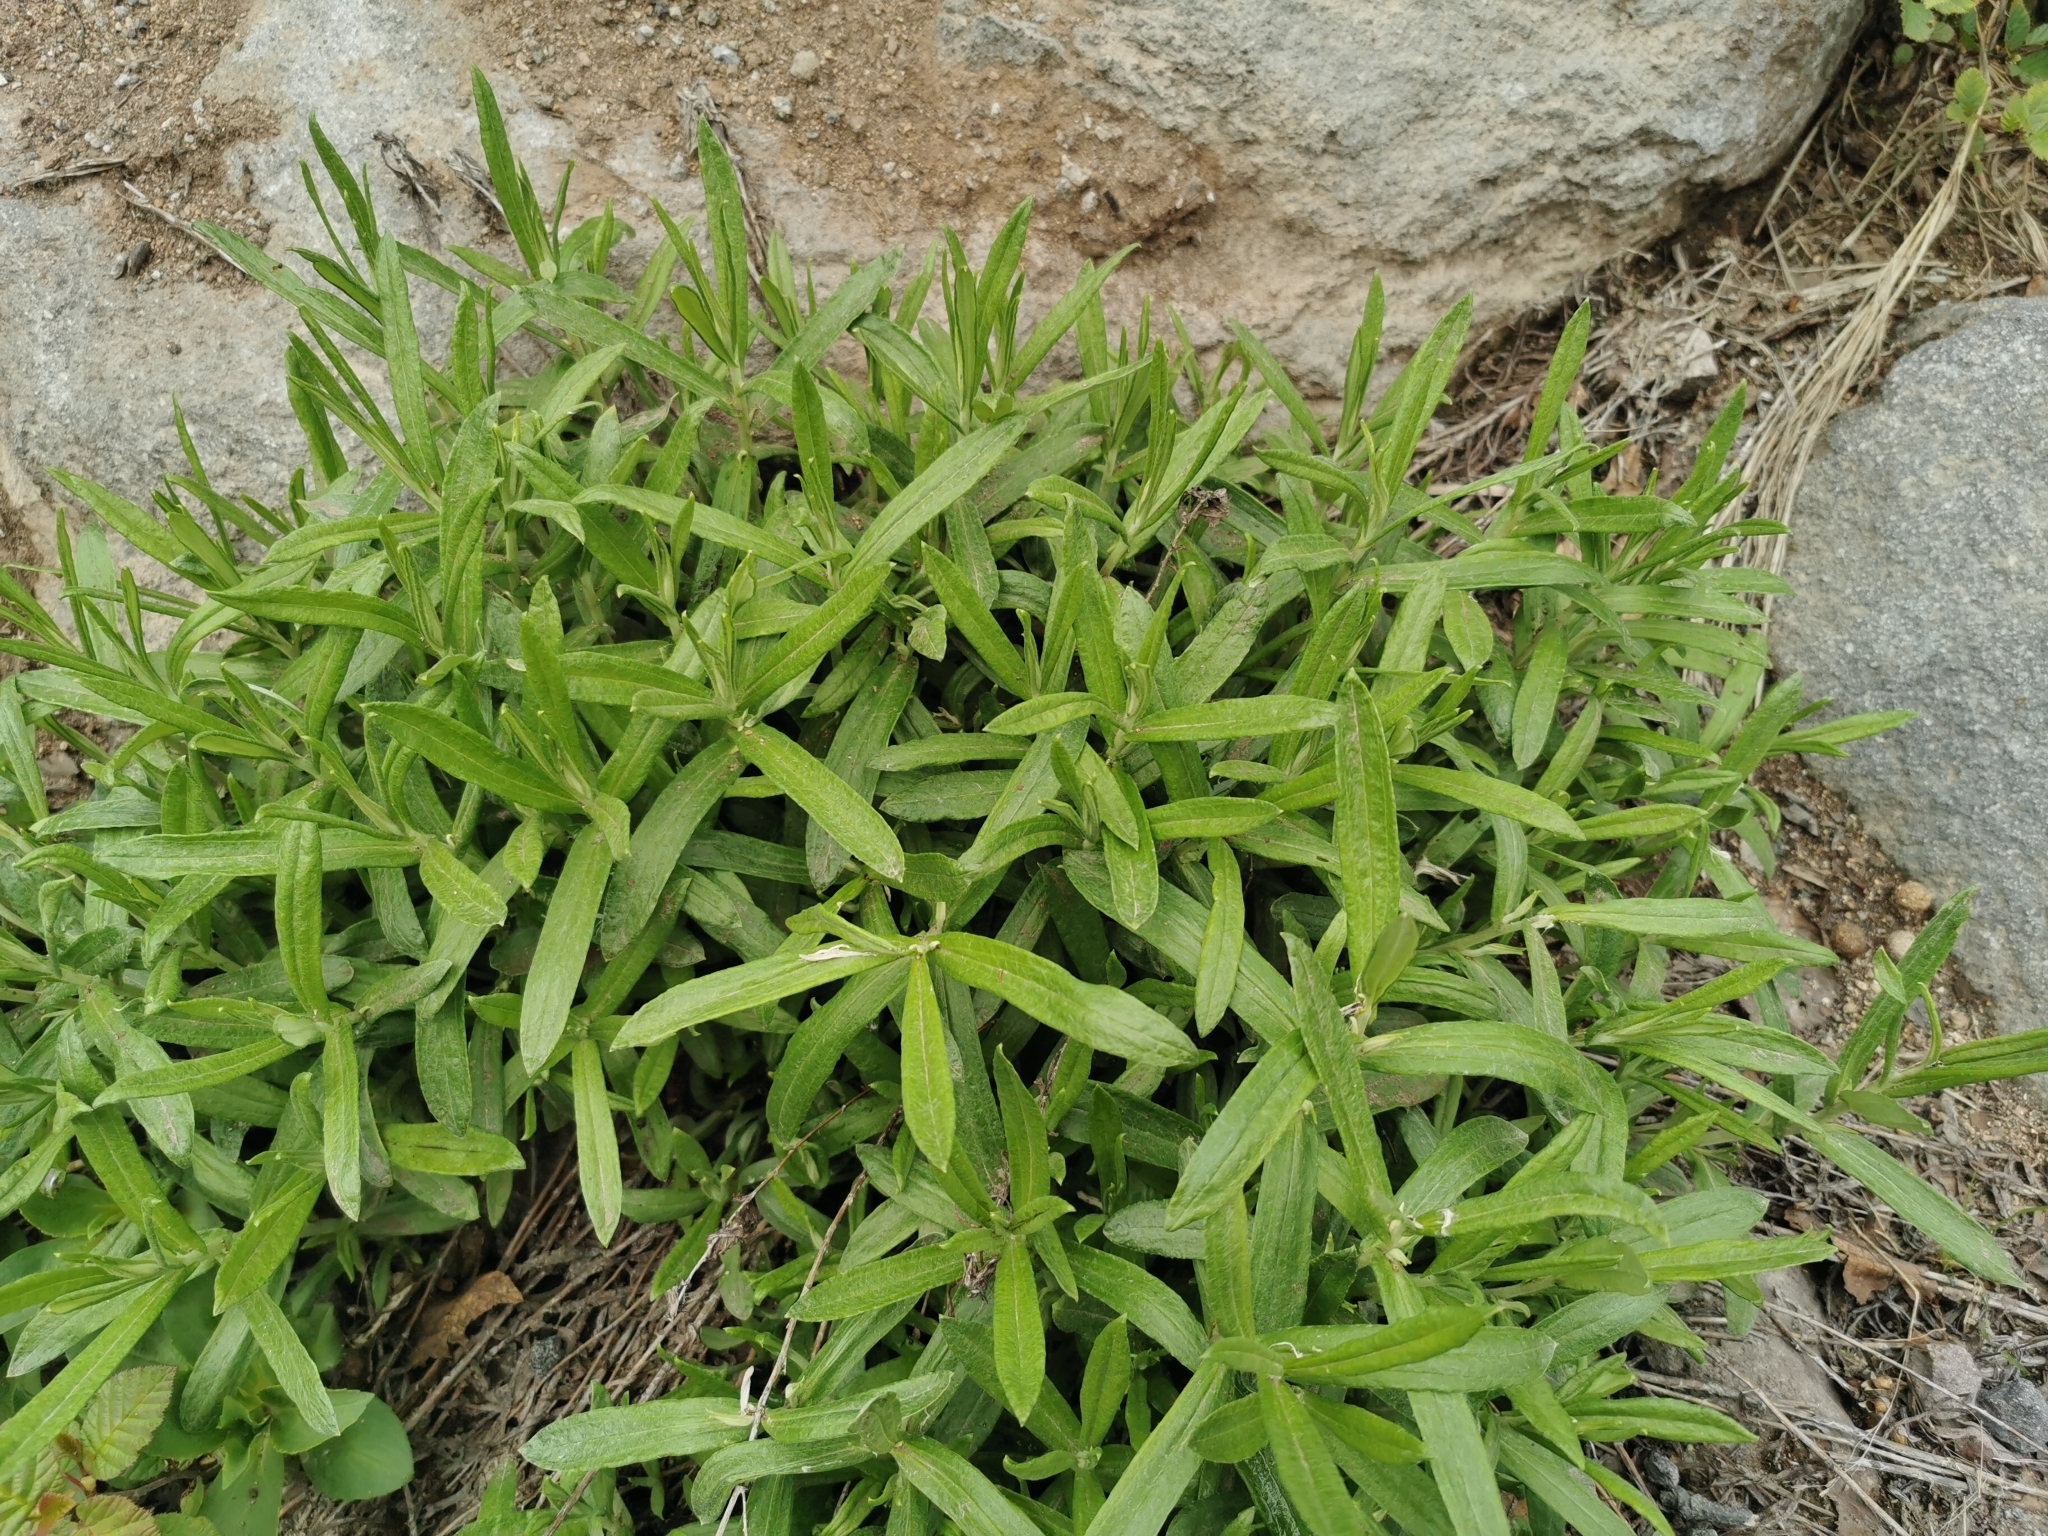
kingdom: Plantae
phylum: Tracheophyta
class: Magnoliopsida
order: Asterales
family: Asteraceae
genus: Anaphalis
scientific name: Anaphalis margaritacea
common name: Pearly everlasting
